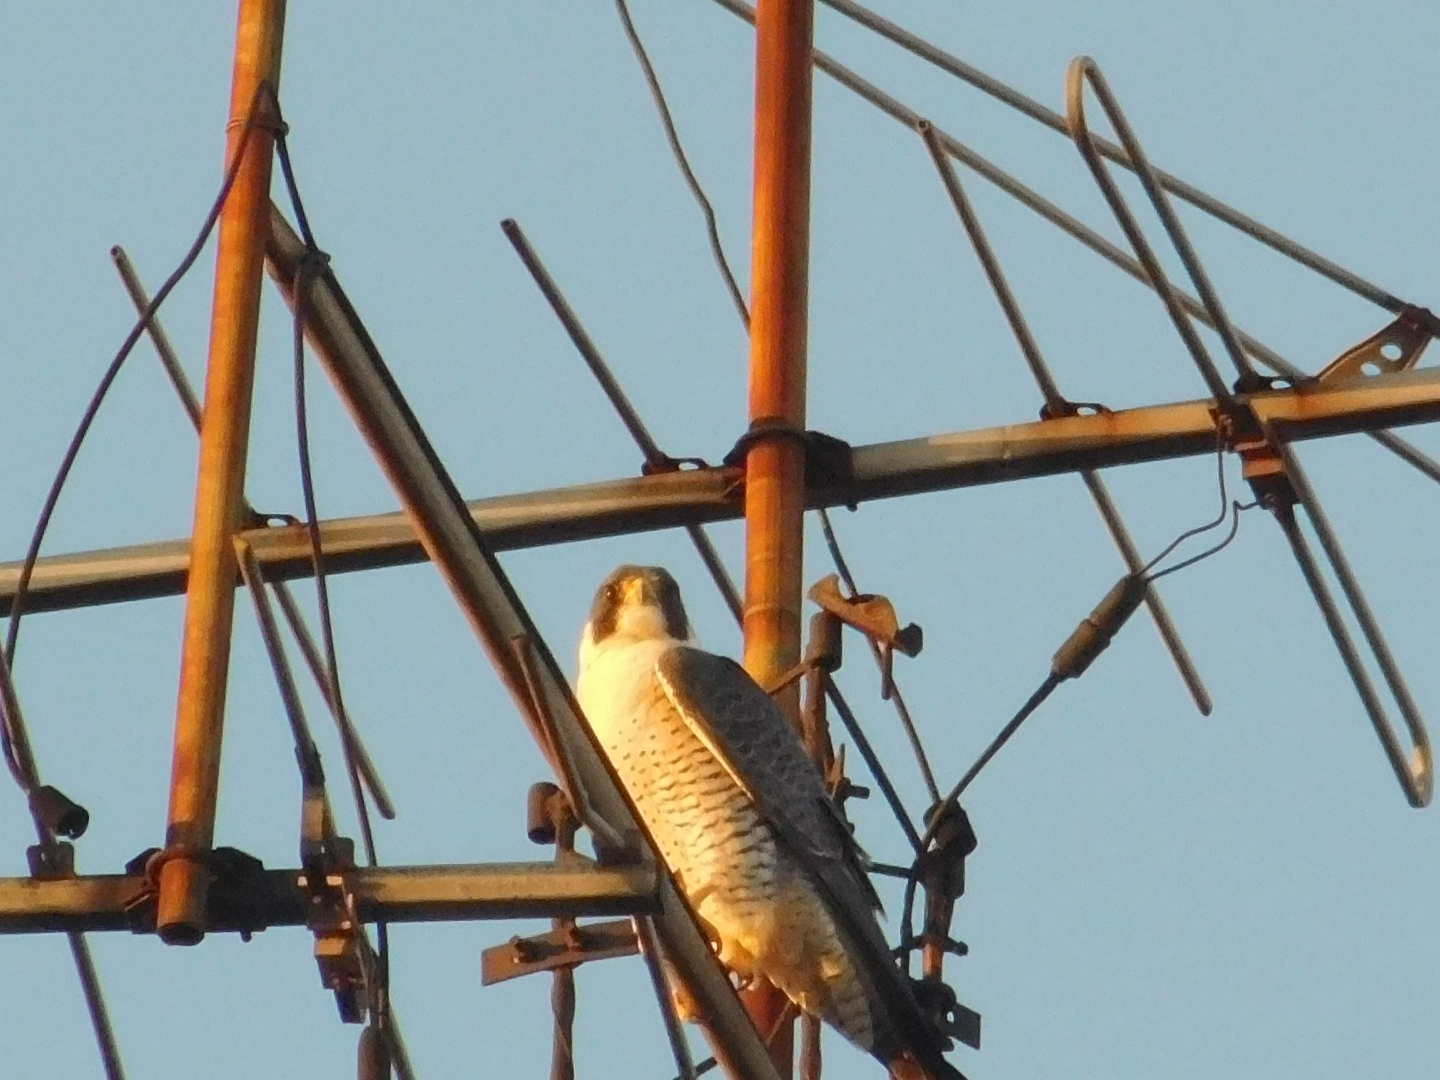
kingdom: Animalia
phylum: Chordata
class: Aves
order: Falconiformes
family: Falconidae
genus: Falco
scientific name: Falco peregrinus
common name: Peregrine falcon
